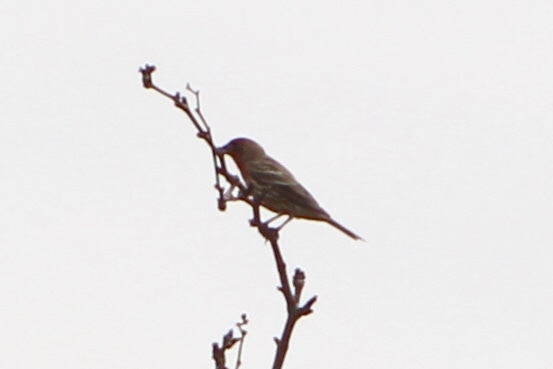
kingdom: Animalia
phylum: Chordata
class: Aves
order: Passeriformes
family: Fringillidae
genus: Haemorhous
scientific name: Haemorhous mexicanus
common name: House finch
